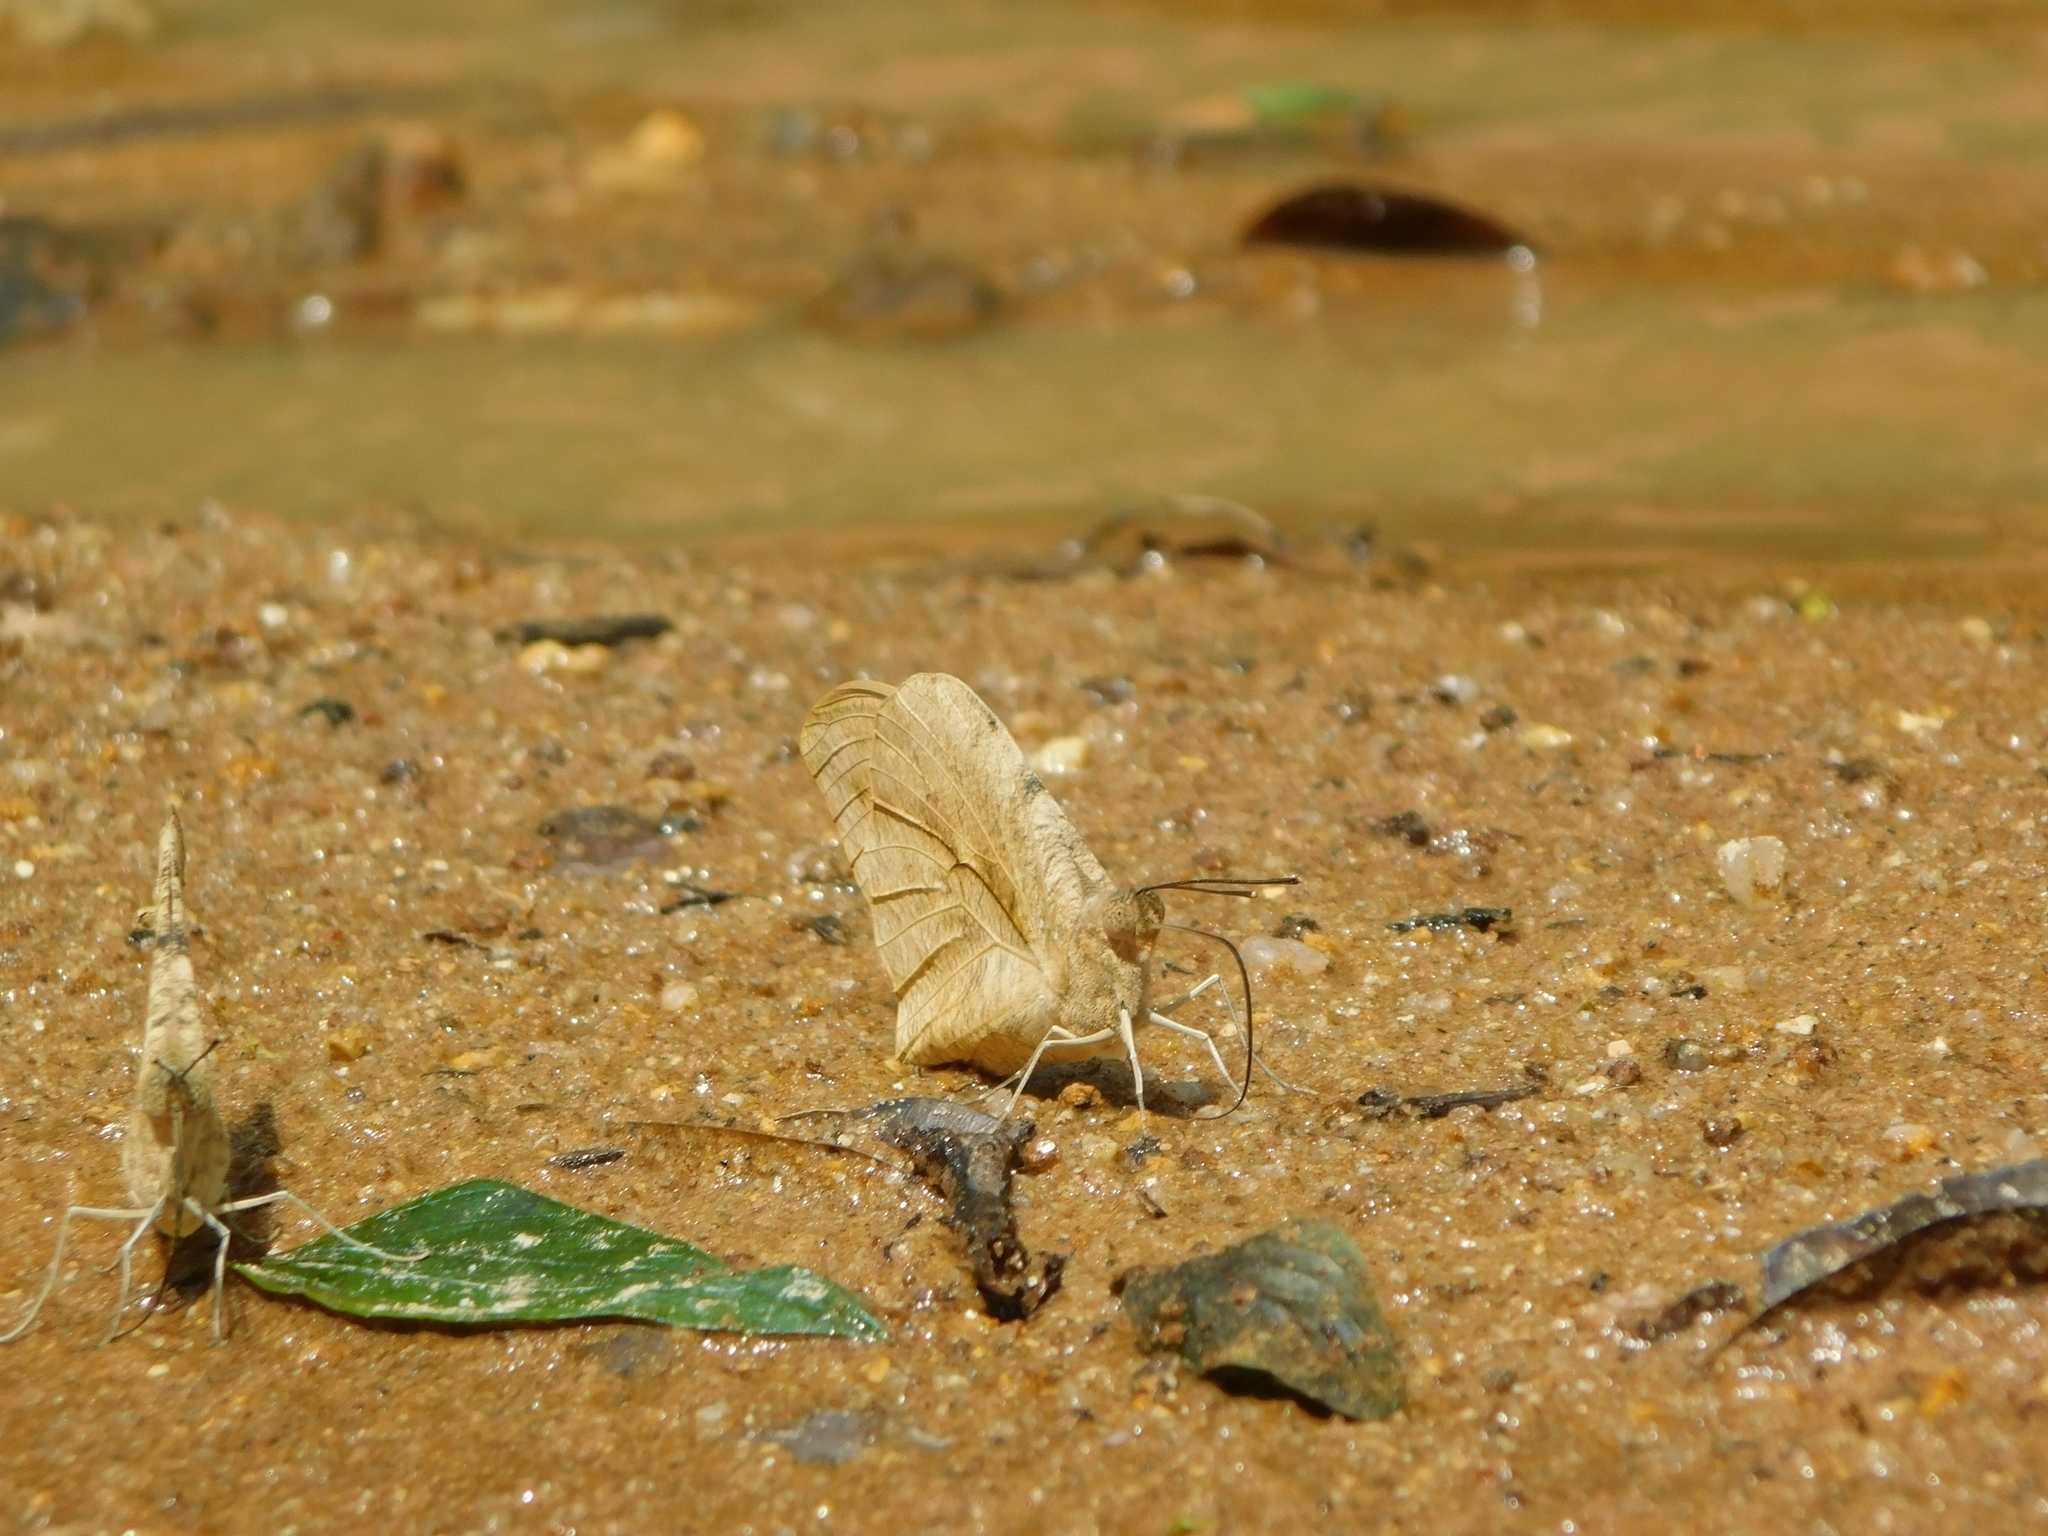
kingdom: Animalia
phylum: Arthropoda
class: Insecta
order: Lepidoptera
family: Pieridae
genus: Hebomoia
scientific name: Hebomoia glaucippe
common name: Great orange tip
